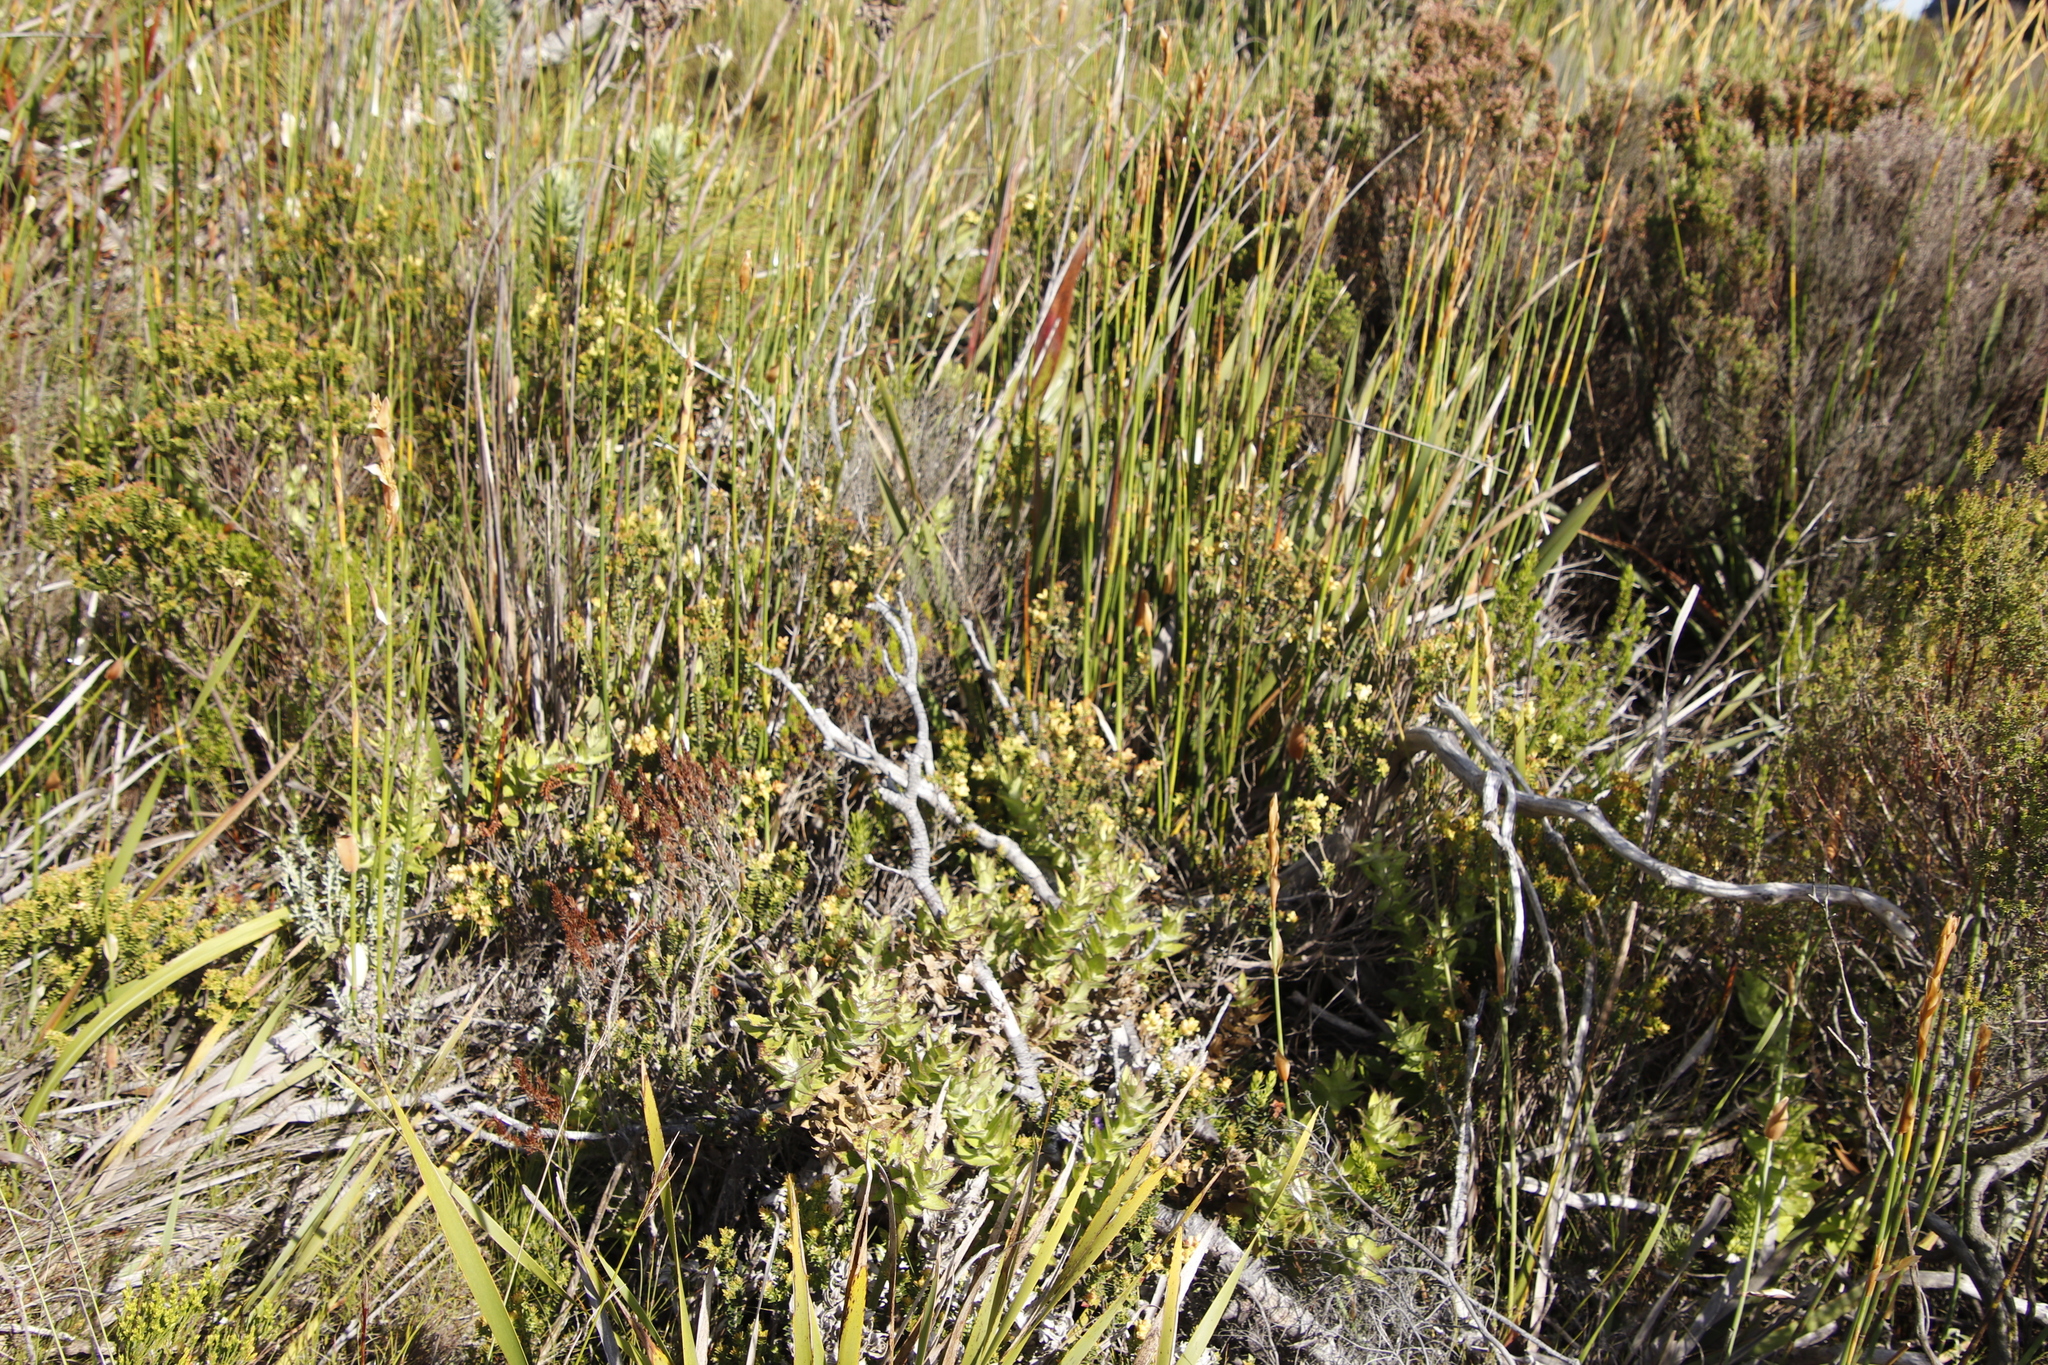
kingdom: Plantae
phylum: Tracheophyta
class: Magnoliopsida
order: Myrtales
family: Penaeaceae
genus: Penaea
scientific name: Penaea mucronata
